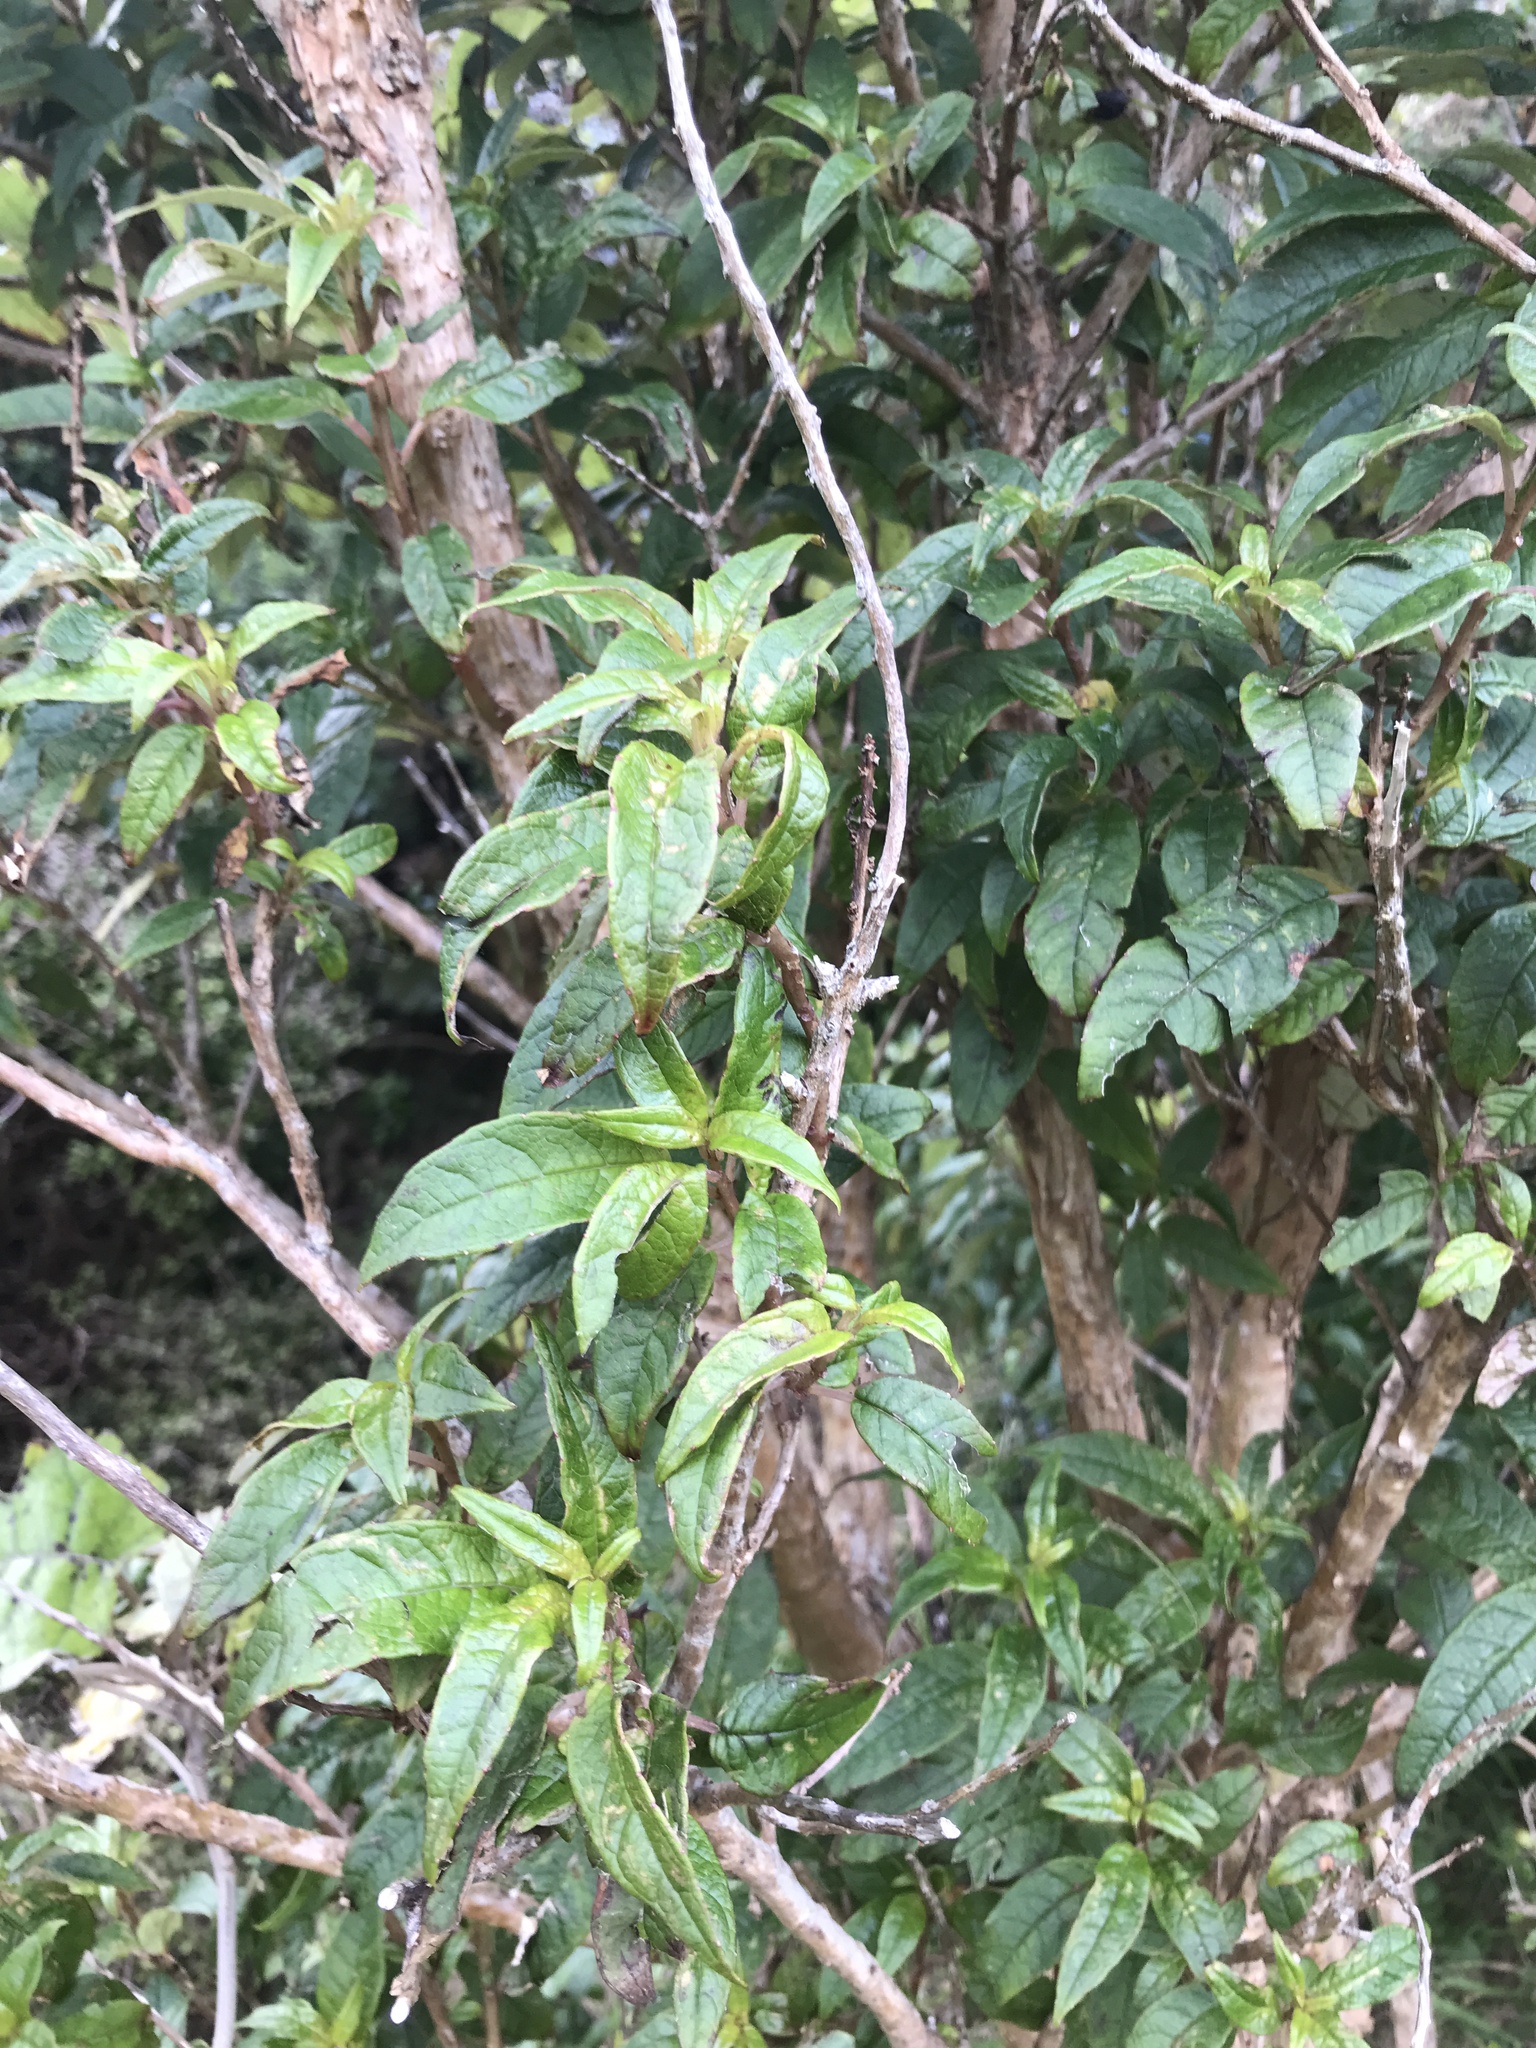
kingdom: Plantae
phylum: Tracheophyta
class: Magnoliopsida
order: Myrtales
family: Onagraceae
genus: Fuchsia
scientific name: Fuchsia excorticata
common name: Tree fuchsia
